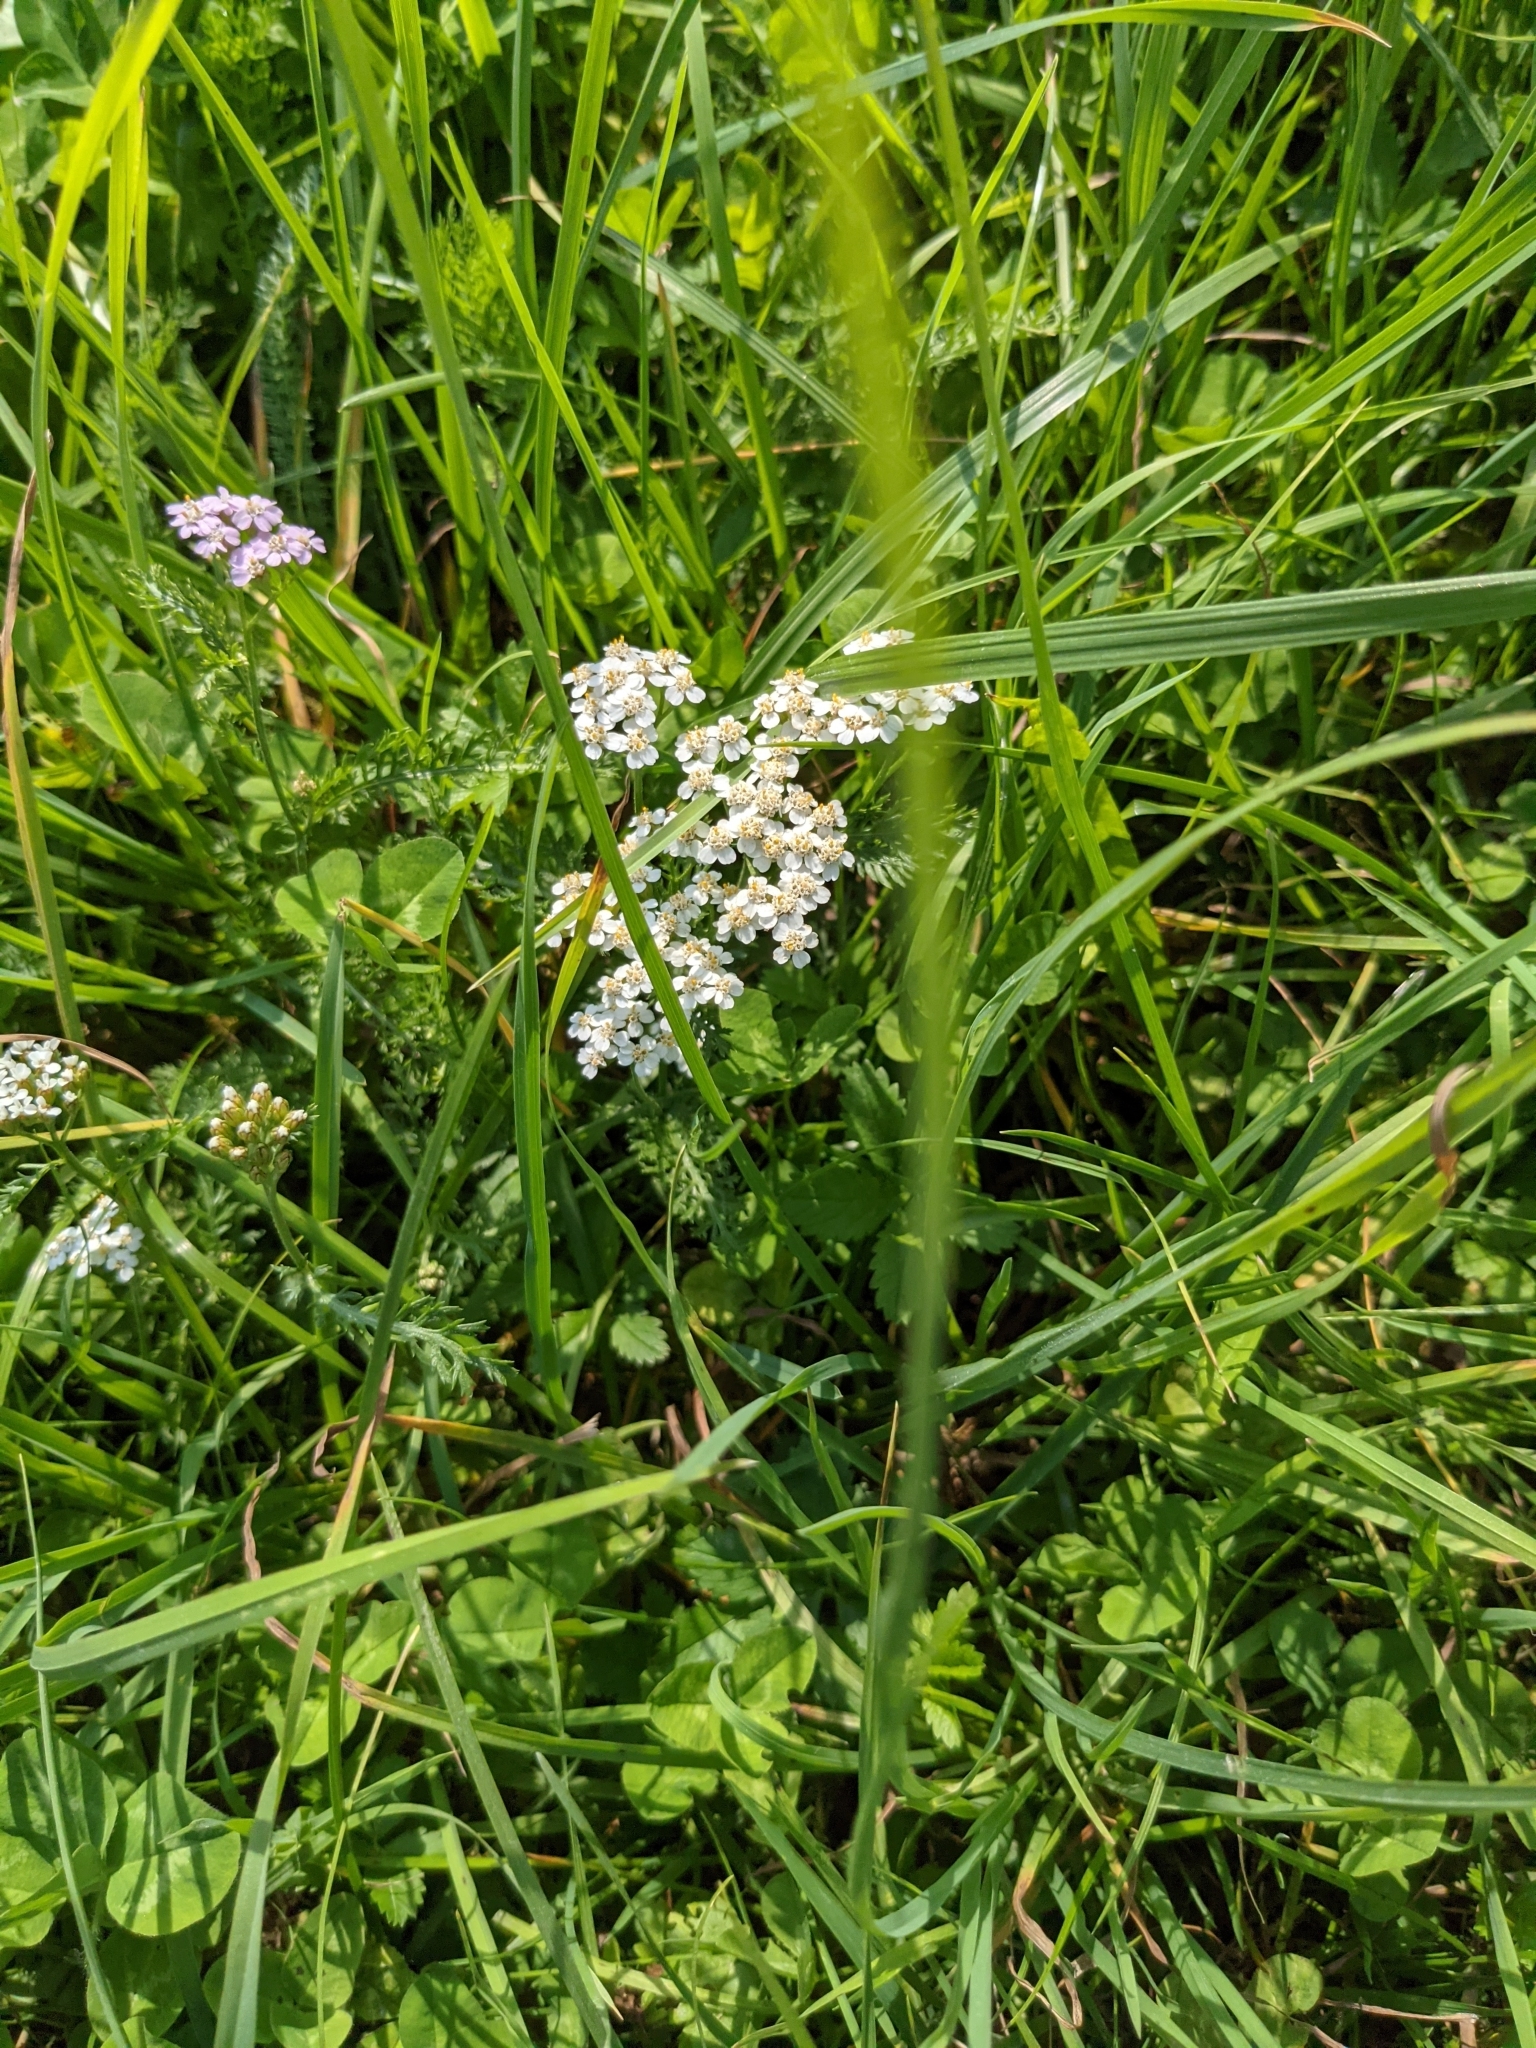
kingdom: Plantae
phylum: Tracheophyta
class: Magnoliopsida
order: Asterales
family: Asteraceae
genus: Achillea
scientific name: Achillea millefolium
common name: Yarrow
